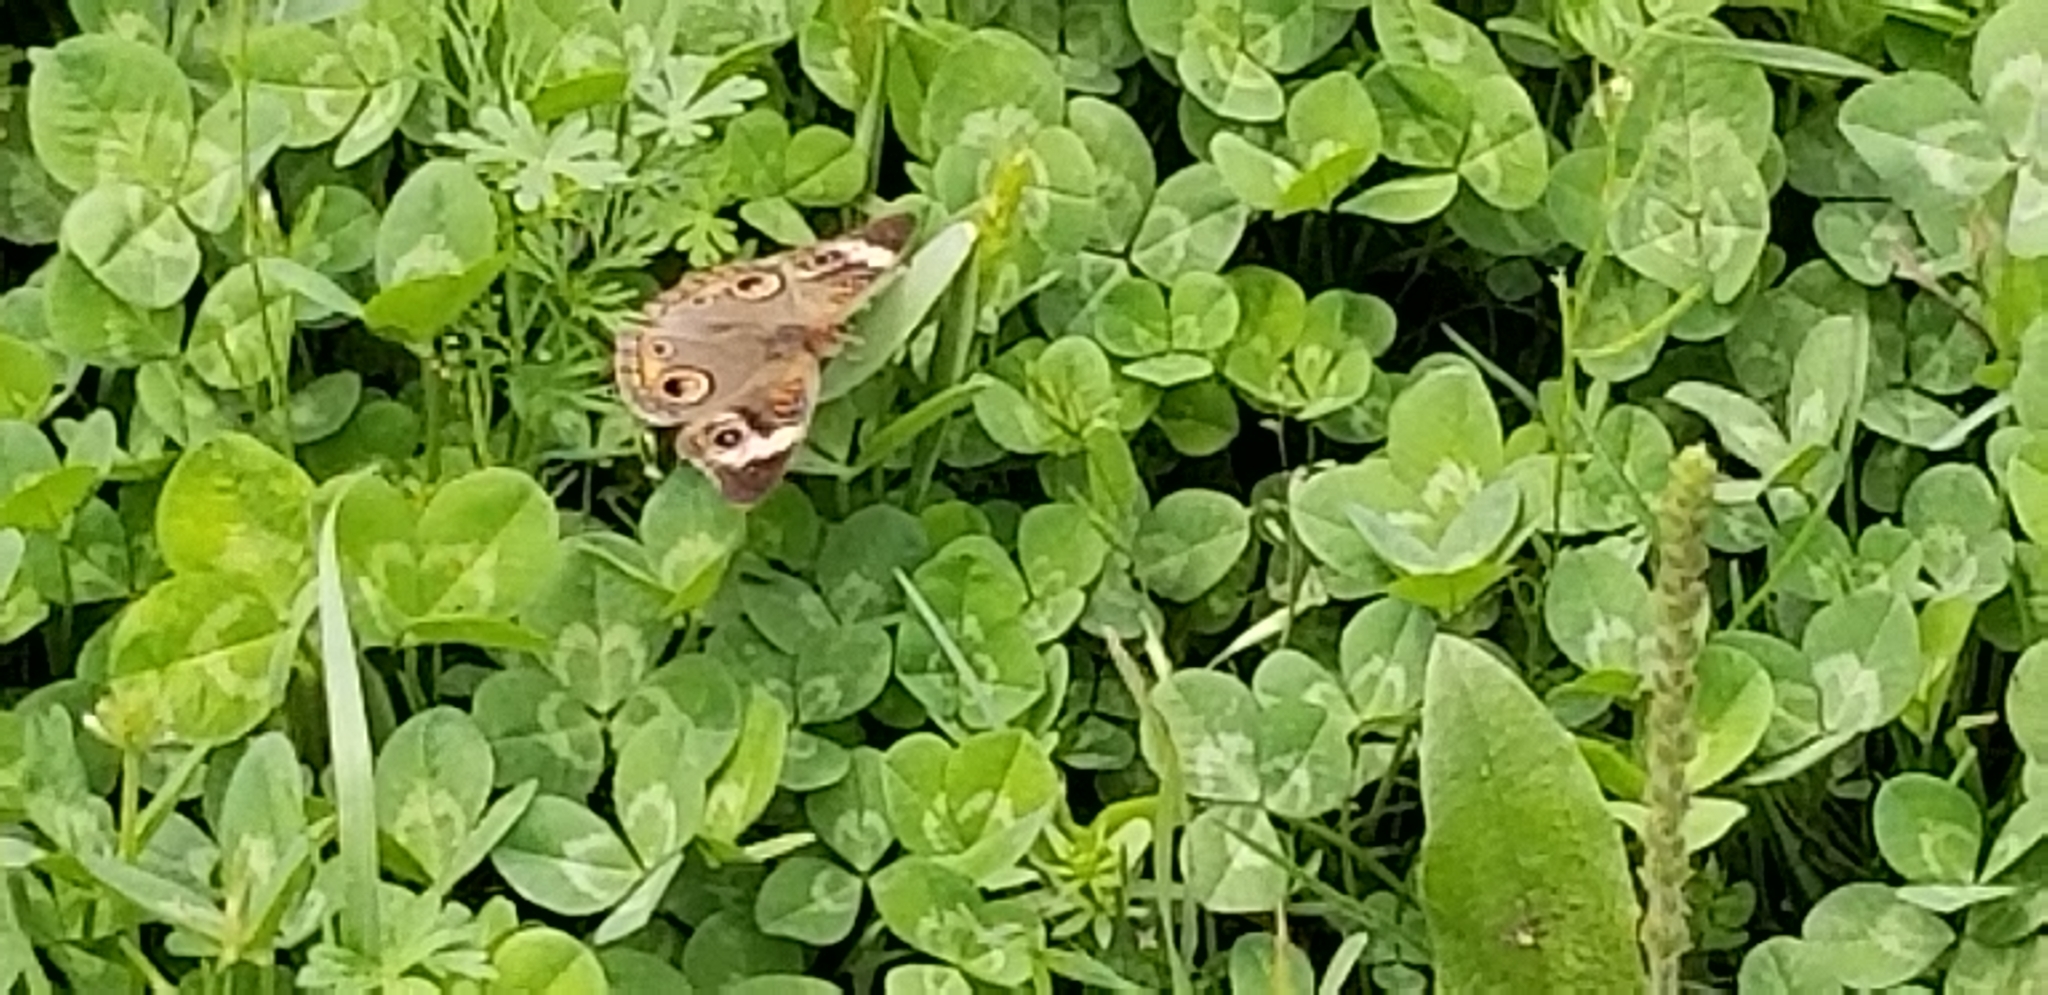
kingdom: Animalia
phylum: Arthropoda
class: Insecta
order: Lepidoptera
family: Nymphalidae
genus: Junonia
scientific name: Junonia coenia
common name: Common buckeye
